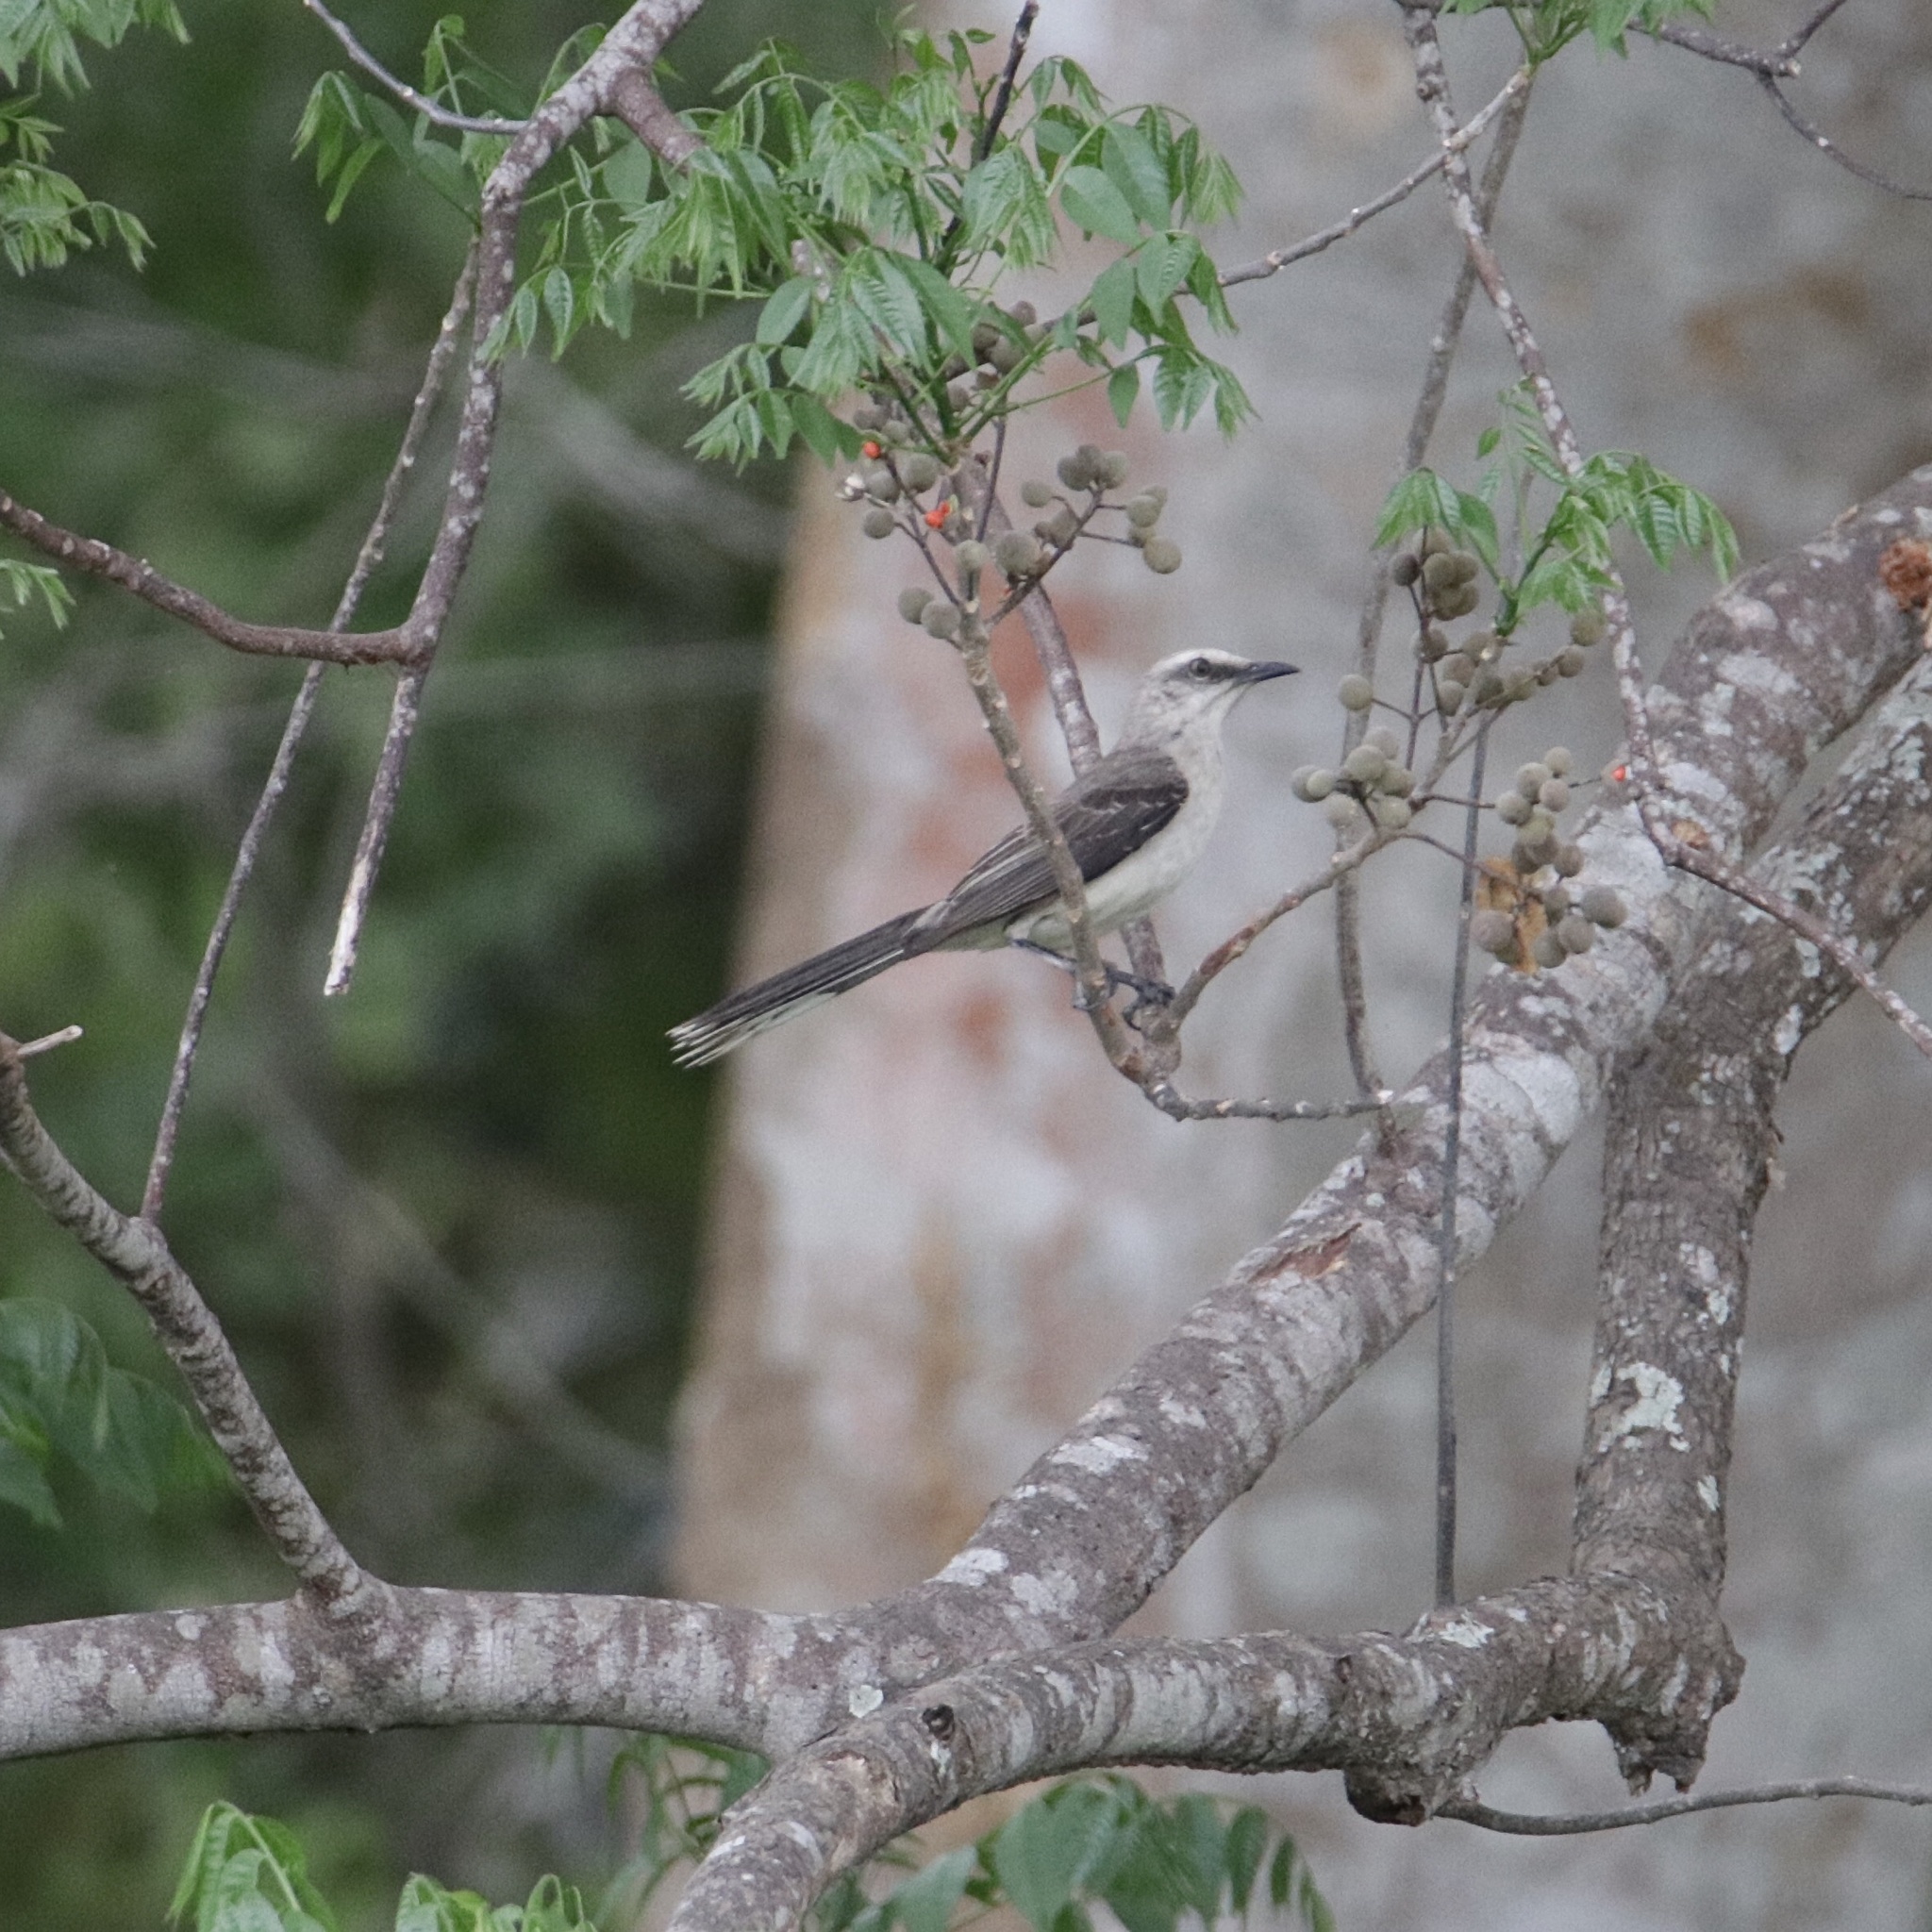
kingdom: Animalia
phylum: Chordata
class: Aves
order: Passeriformes
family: Mimidae
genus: Mimus
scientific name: Mimus gilvus
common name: Tropical mockingbird
